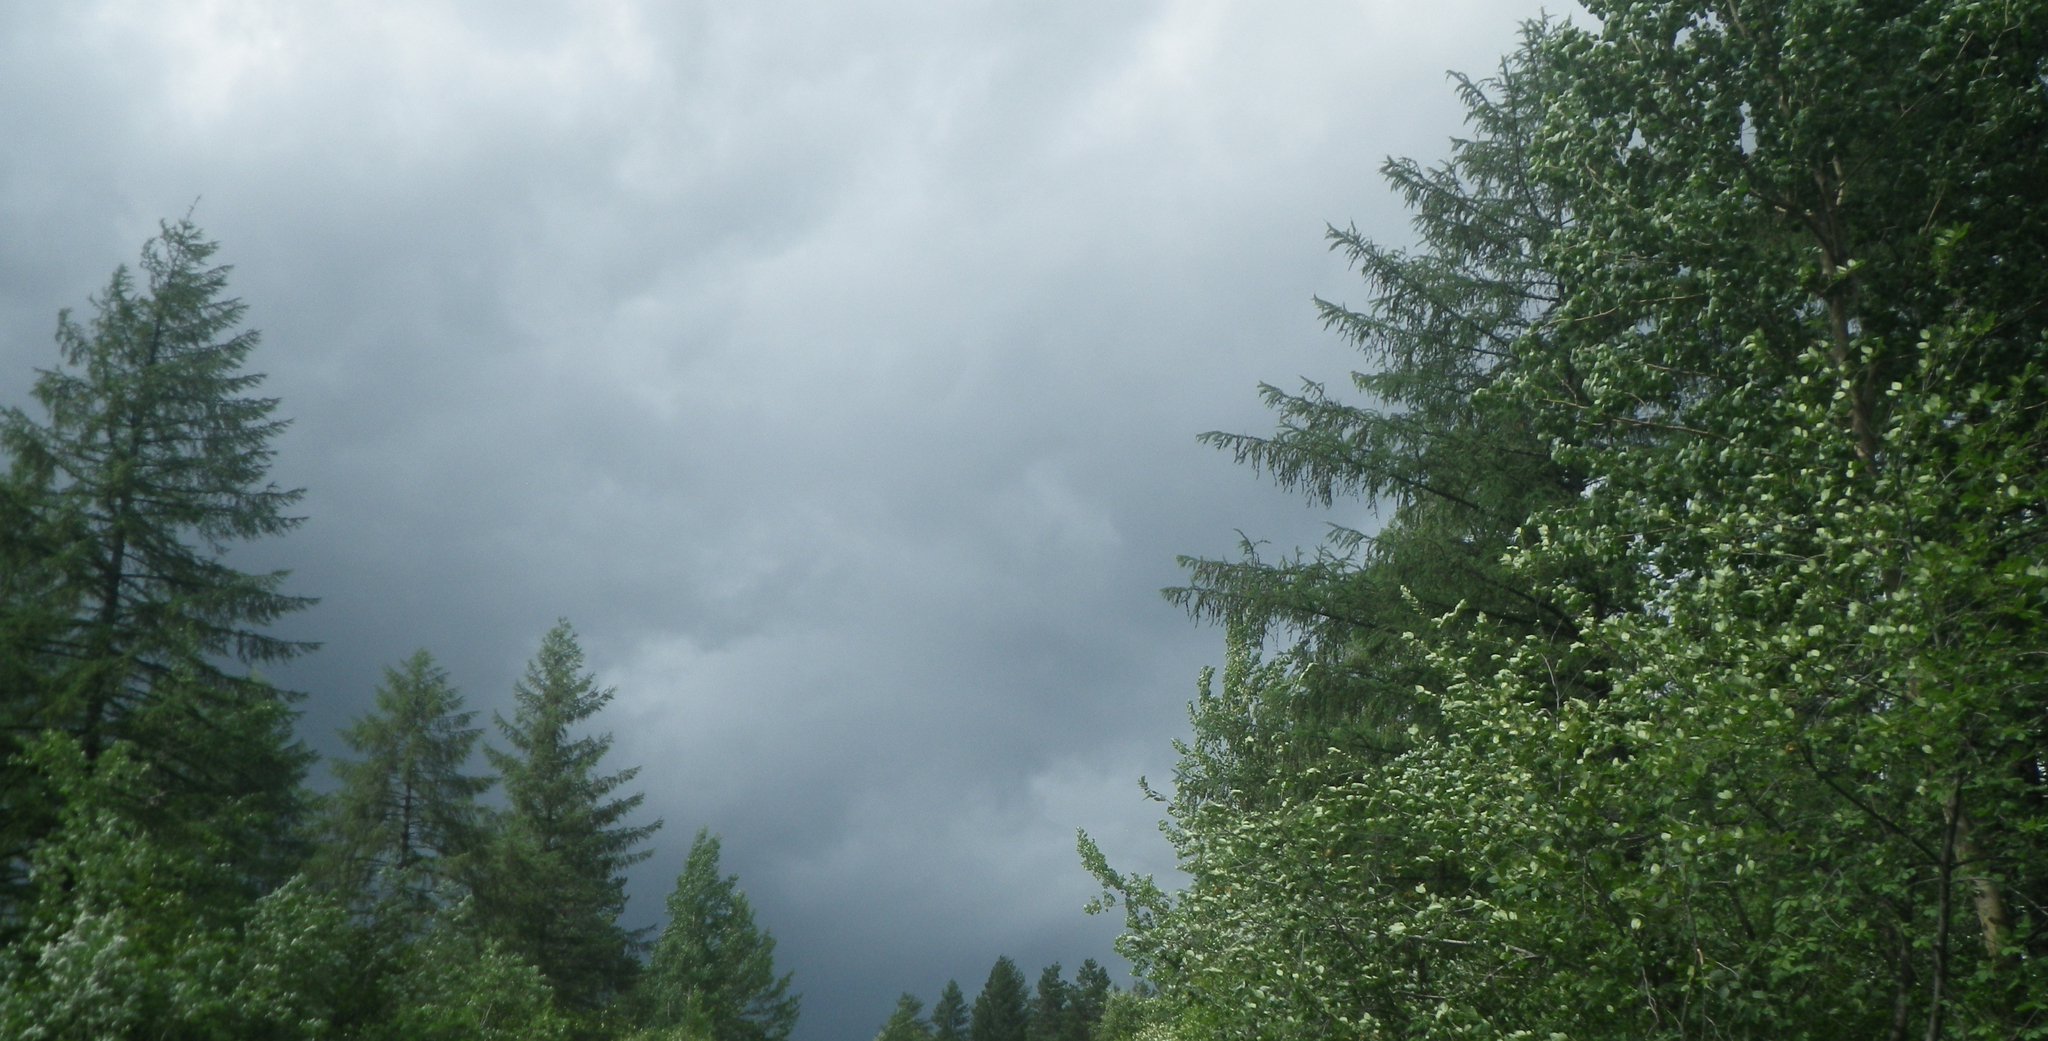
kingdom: Plantae
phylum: Tracheophyta
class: Pinopsida
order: Pinales
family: Pinaceae
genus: Larix
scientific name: Larix gmelinii
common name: Dahurian larch
